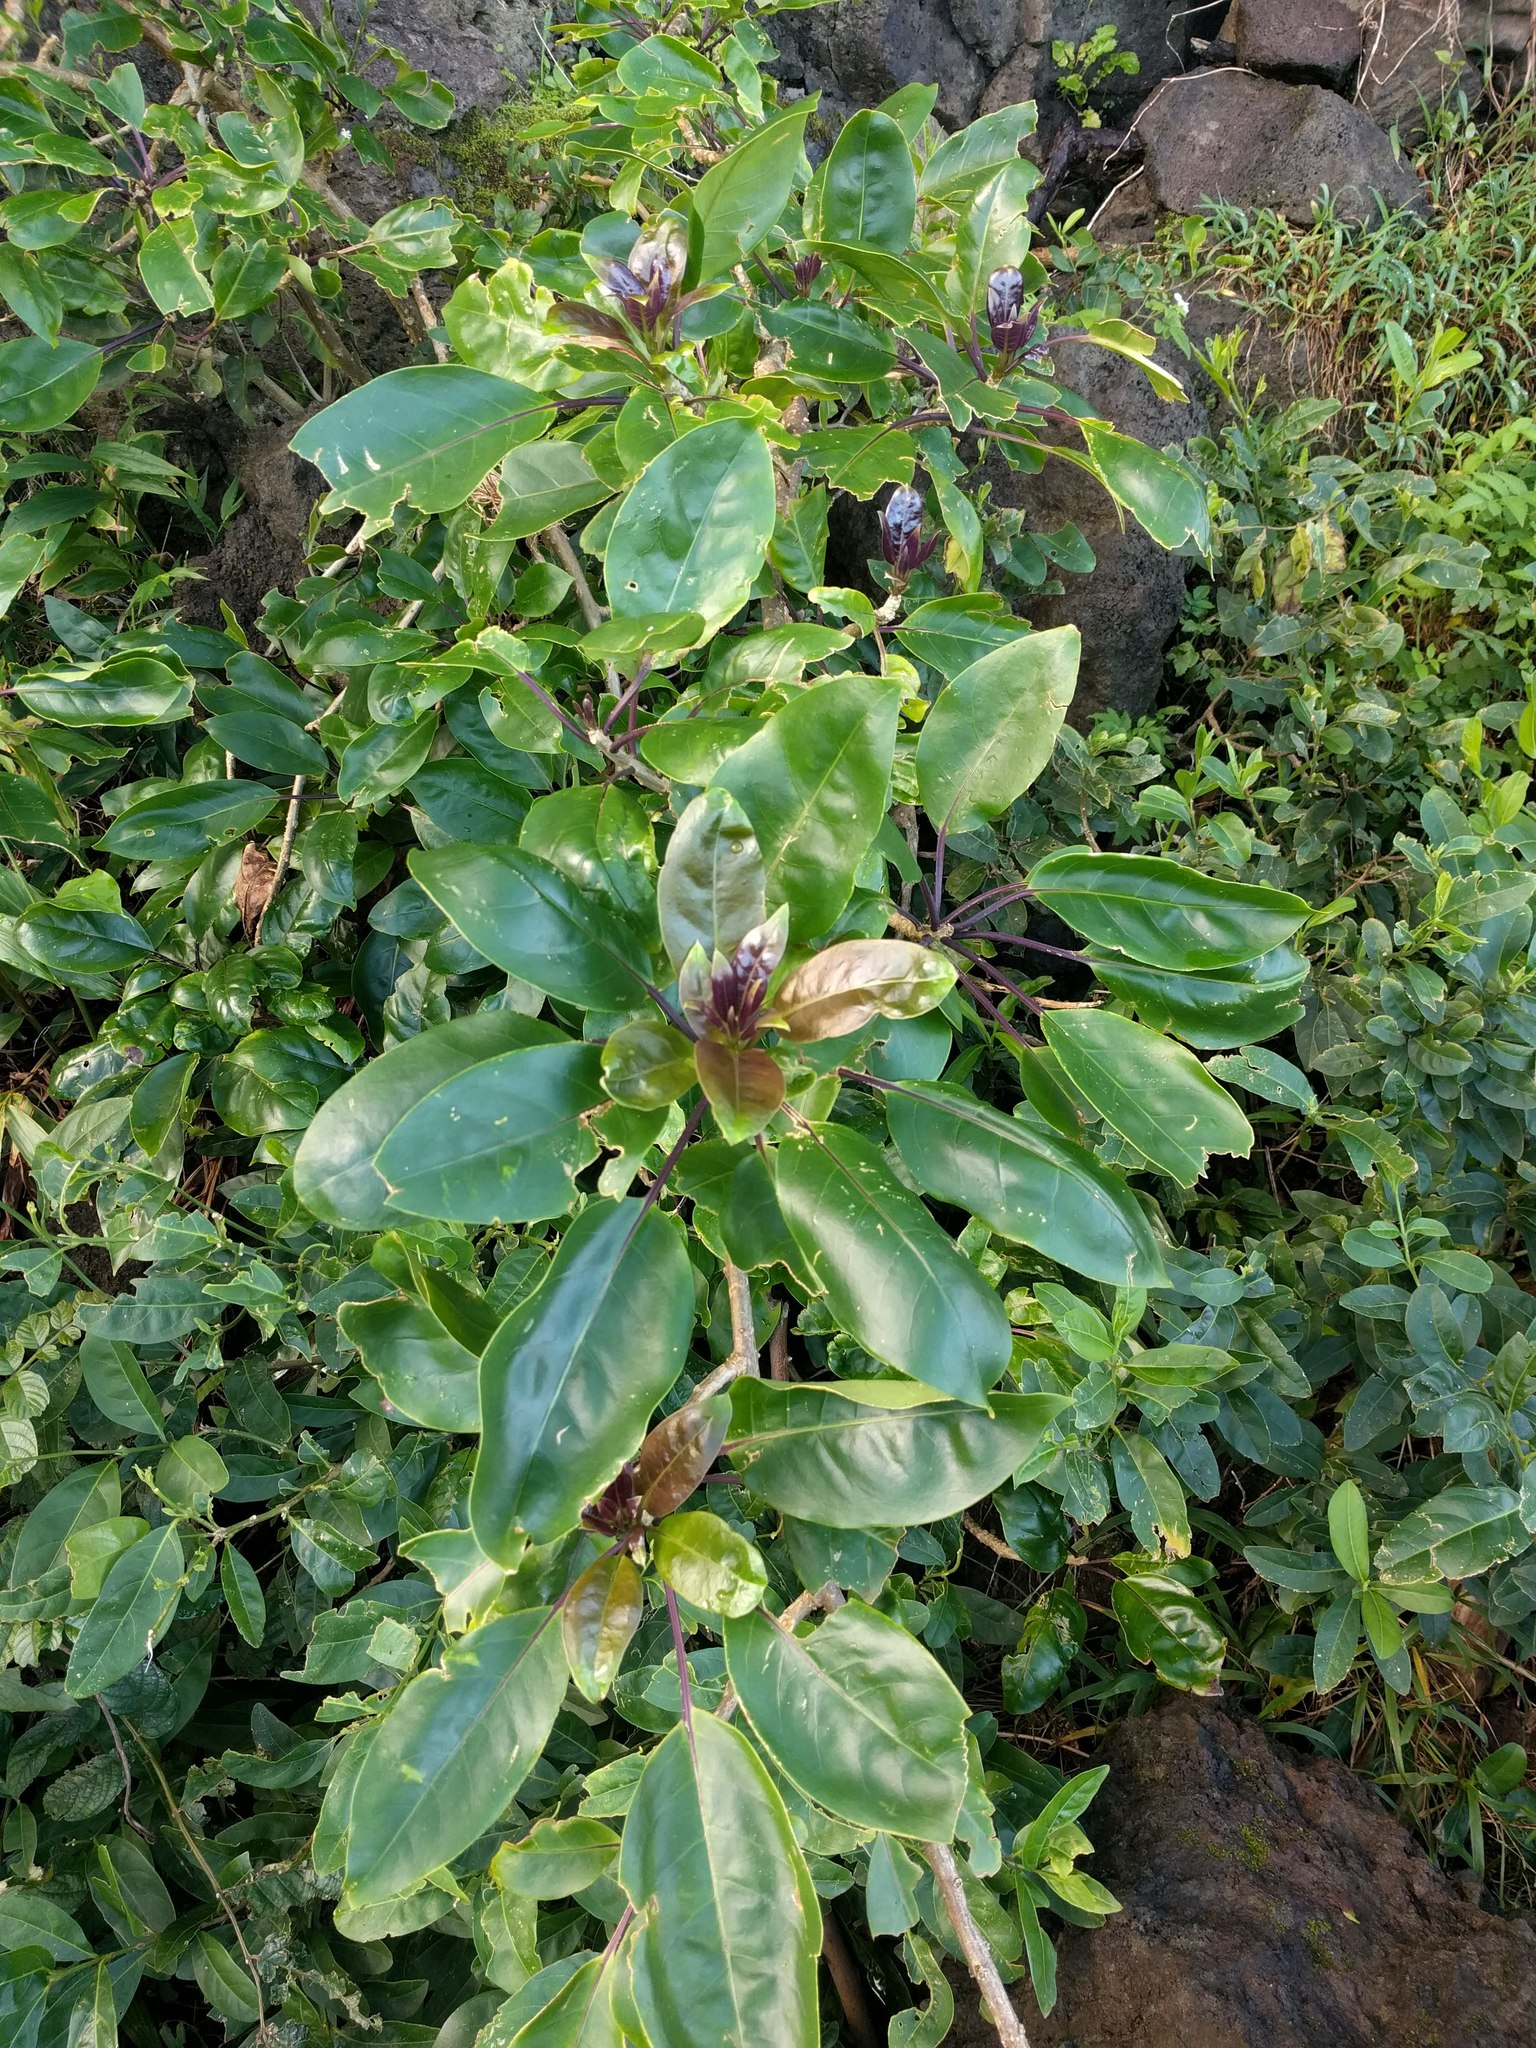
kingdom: Plantae
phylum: Tracheophyta
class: Magnoliopsida
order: Solanales
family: Solanaceae
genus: Solandra
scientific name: Solandra maxima
